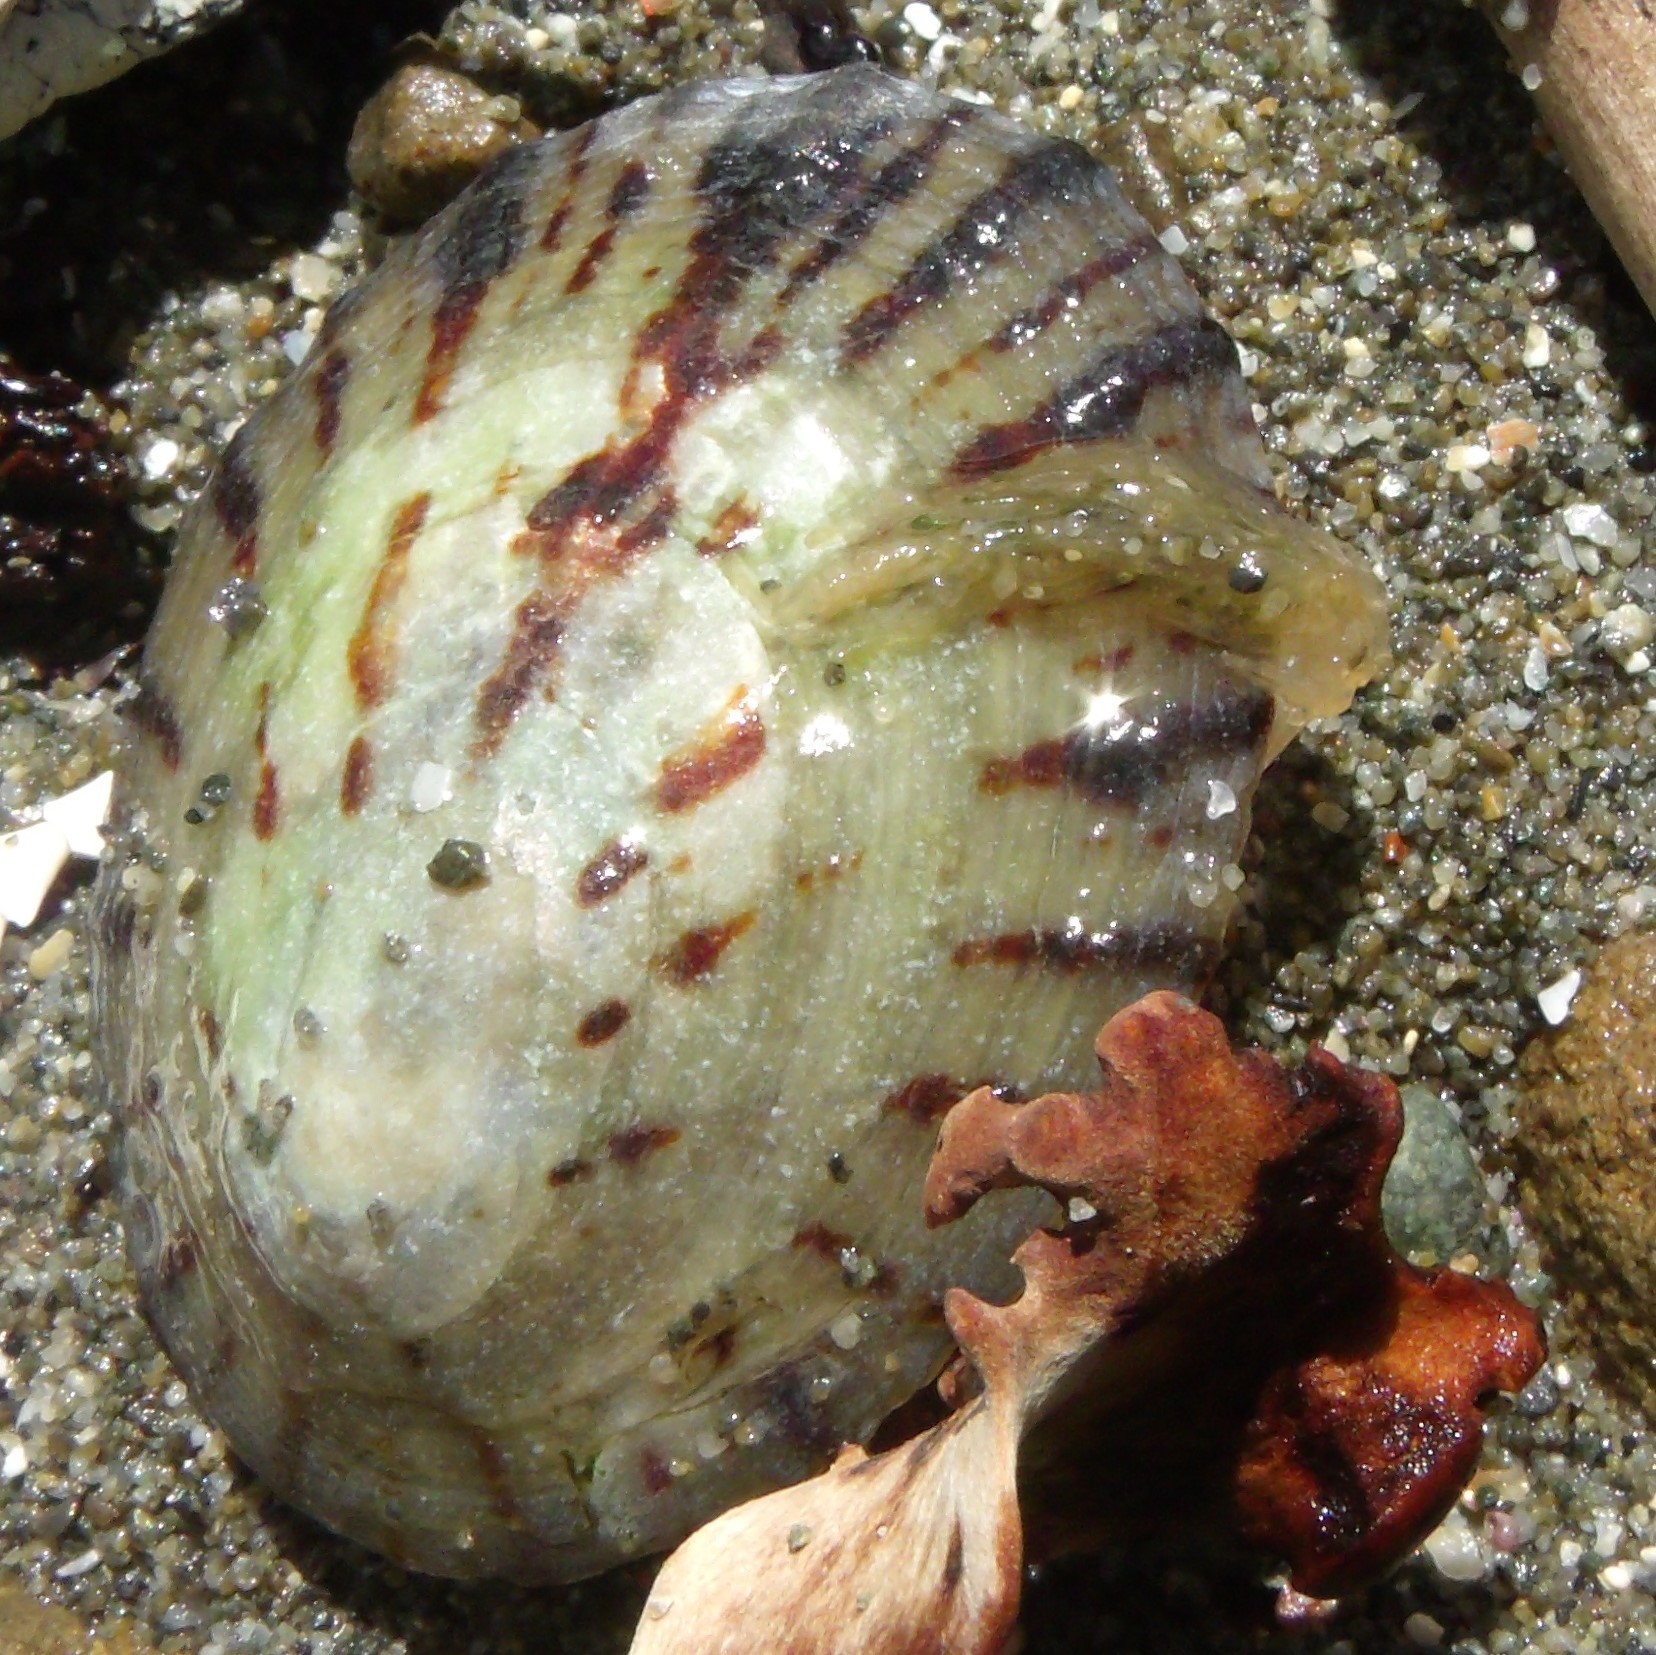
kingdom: Animalia
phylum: Mollusca
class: Gastropoda
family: Nacellidae
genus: Cellana
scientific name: Cellana radians
